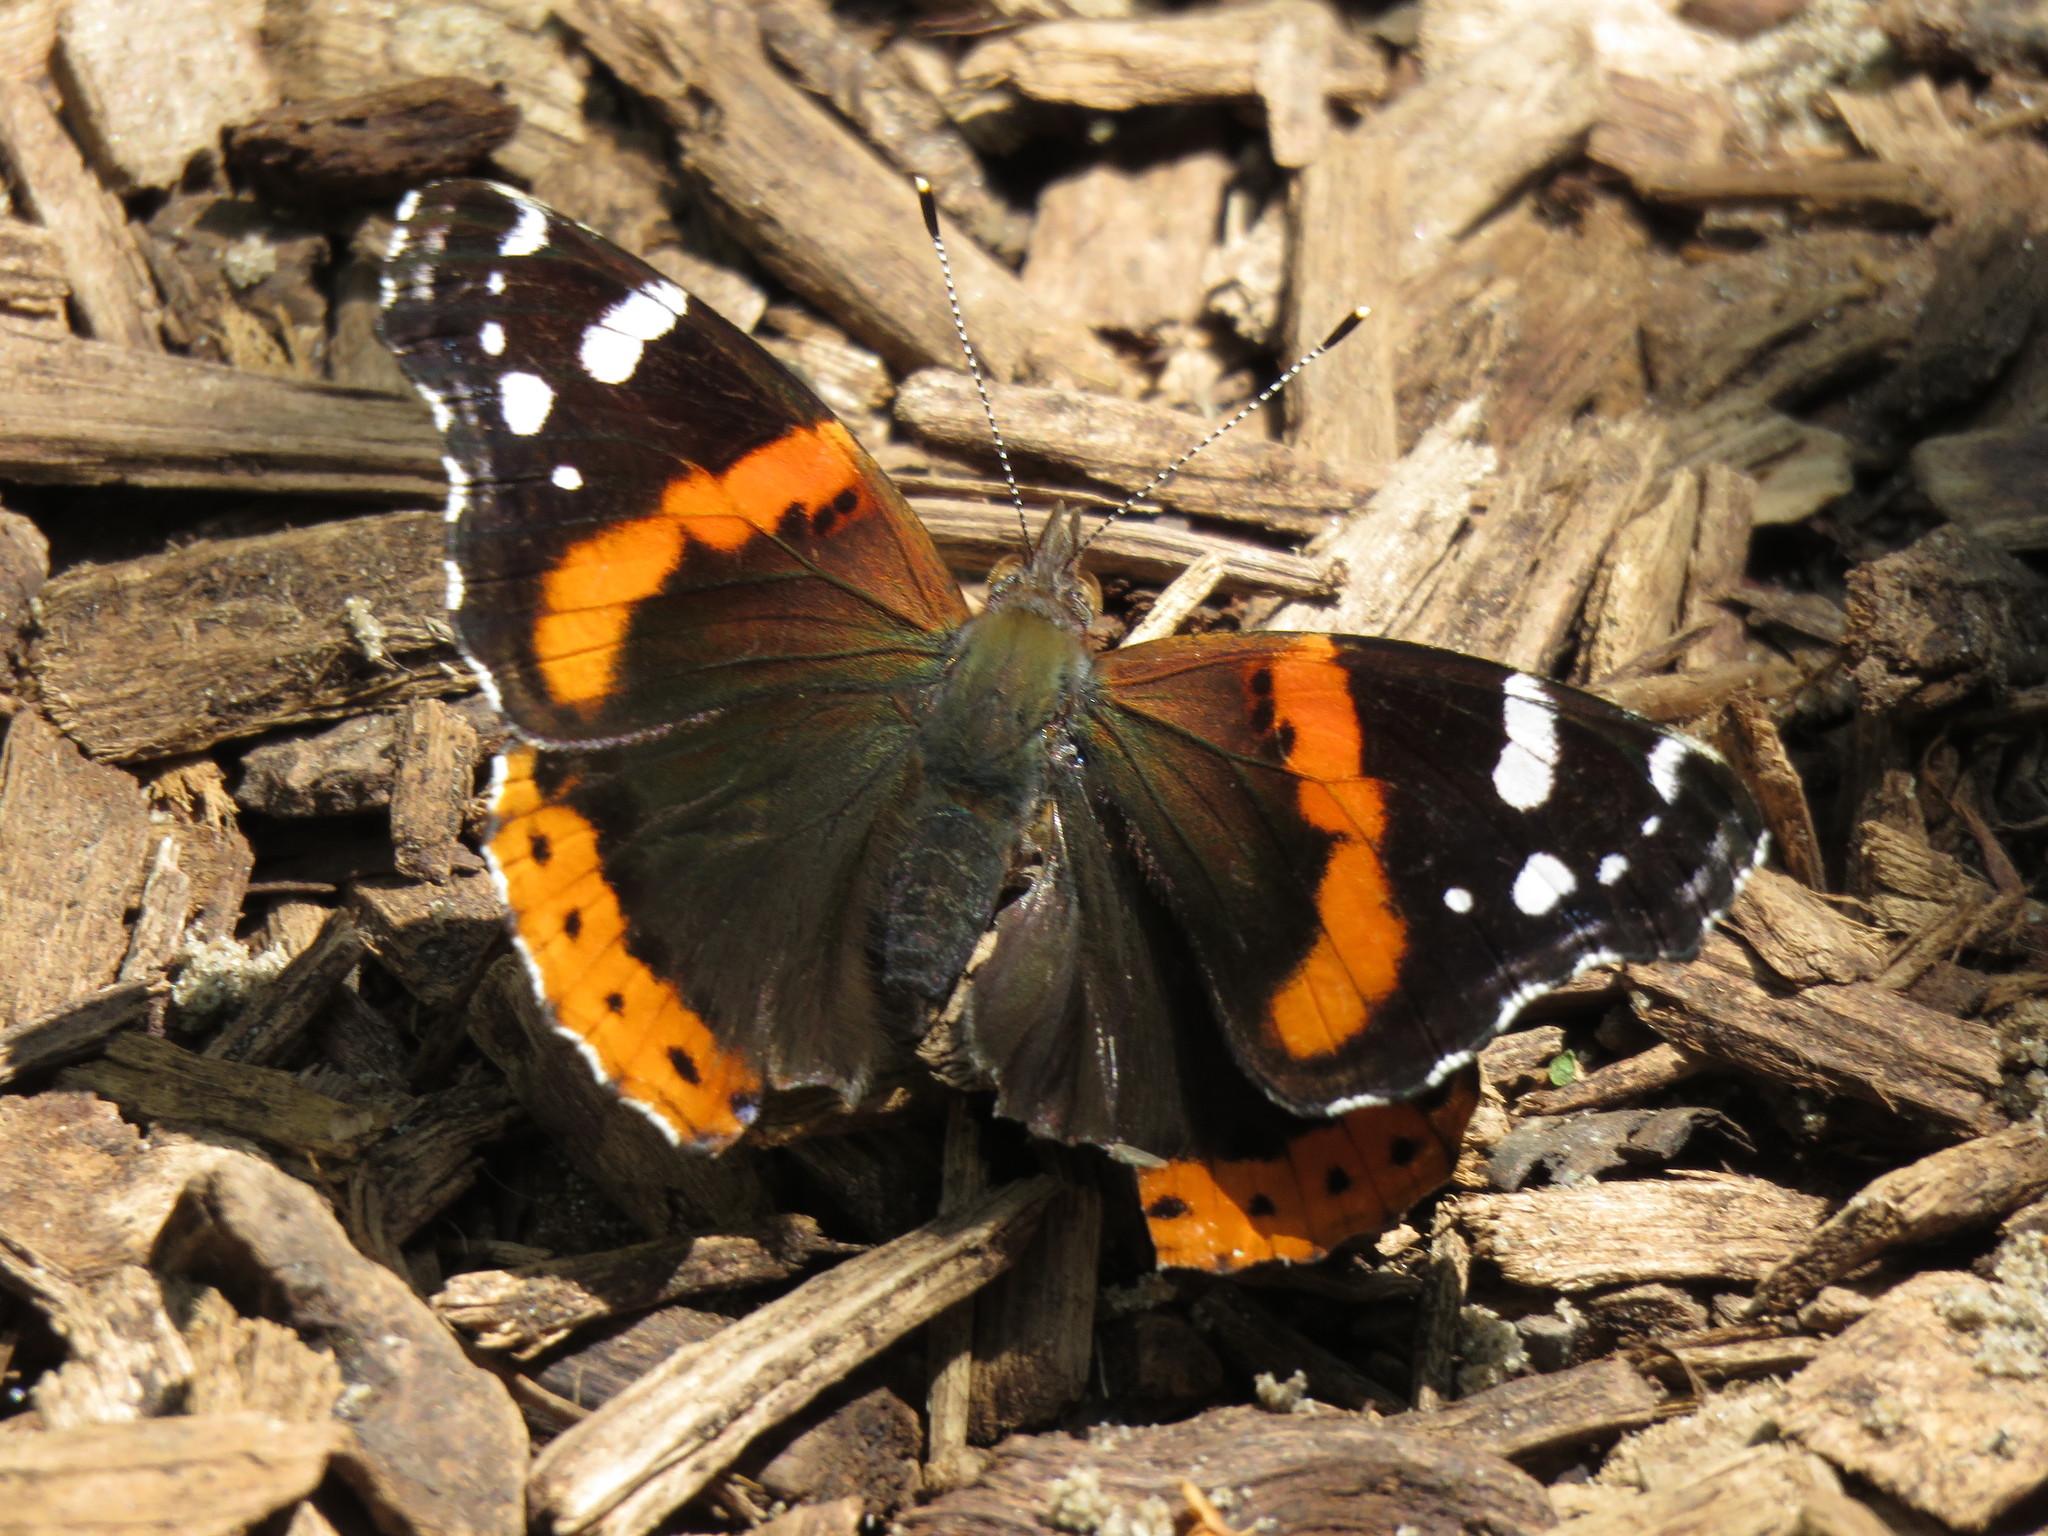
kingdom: Animalia
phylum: Arthropoda
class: Insecta
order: Lepidoptera
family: Nymphalidae
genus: Vanessa
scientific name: Vanessa atalanta
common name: Red admiral
